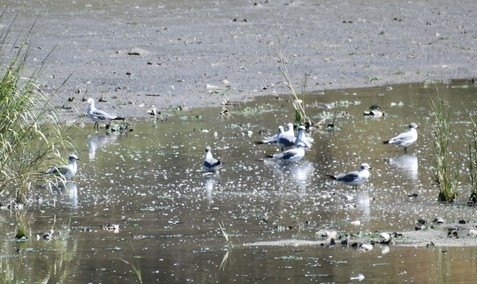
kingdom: Animalia
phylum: Chordata
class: Aves
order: Charadriiformes
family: Laridae
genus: Leucophaeus
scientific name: Leucophaeus atricilla
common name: Laughing gull
